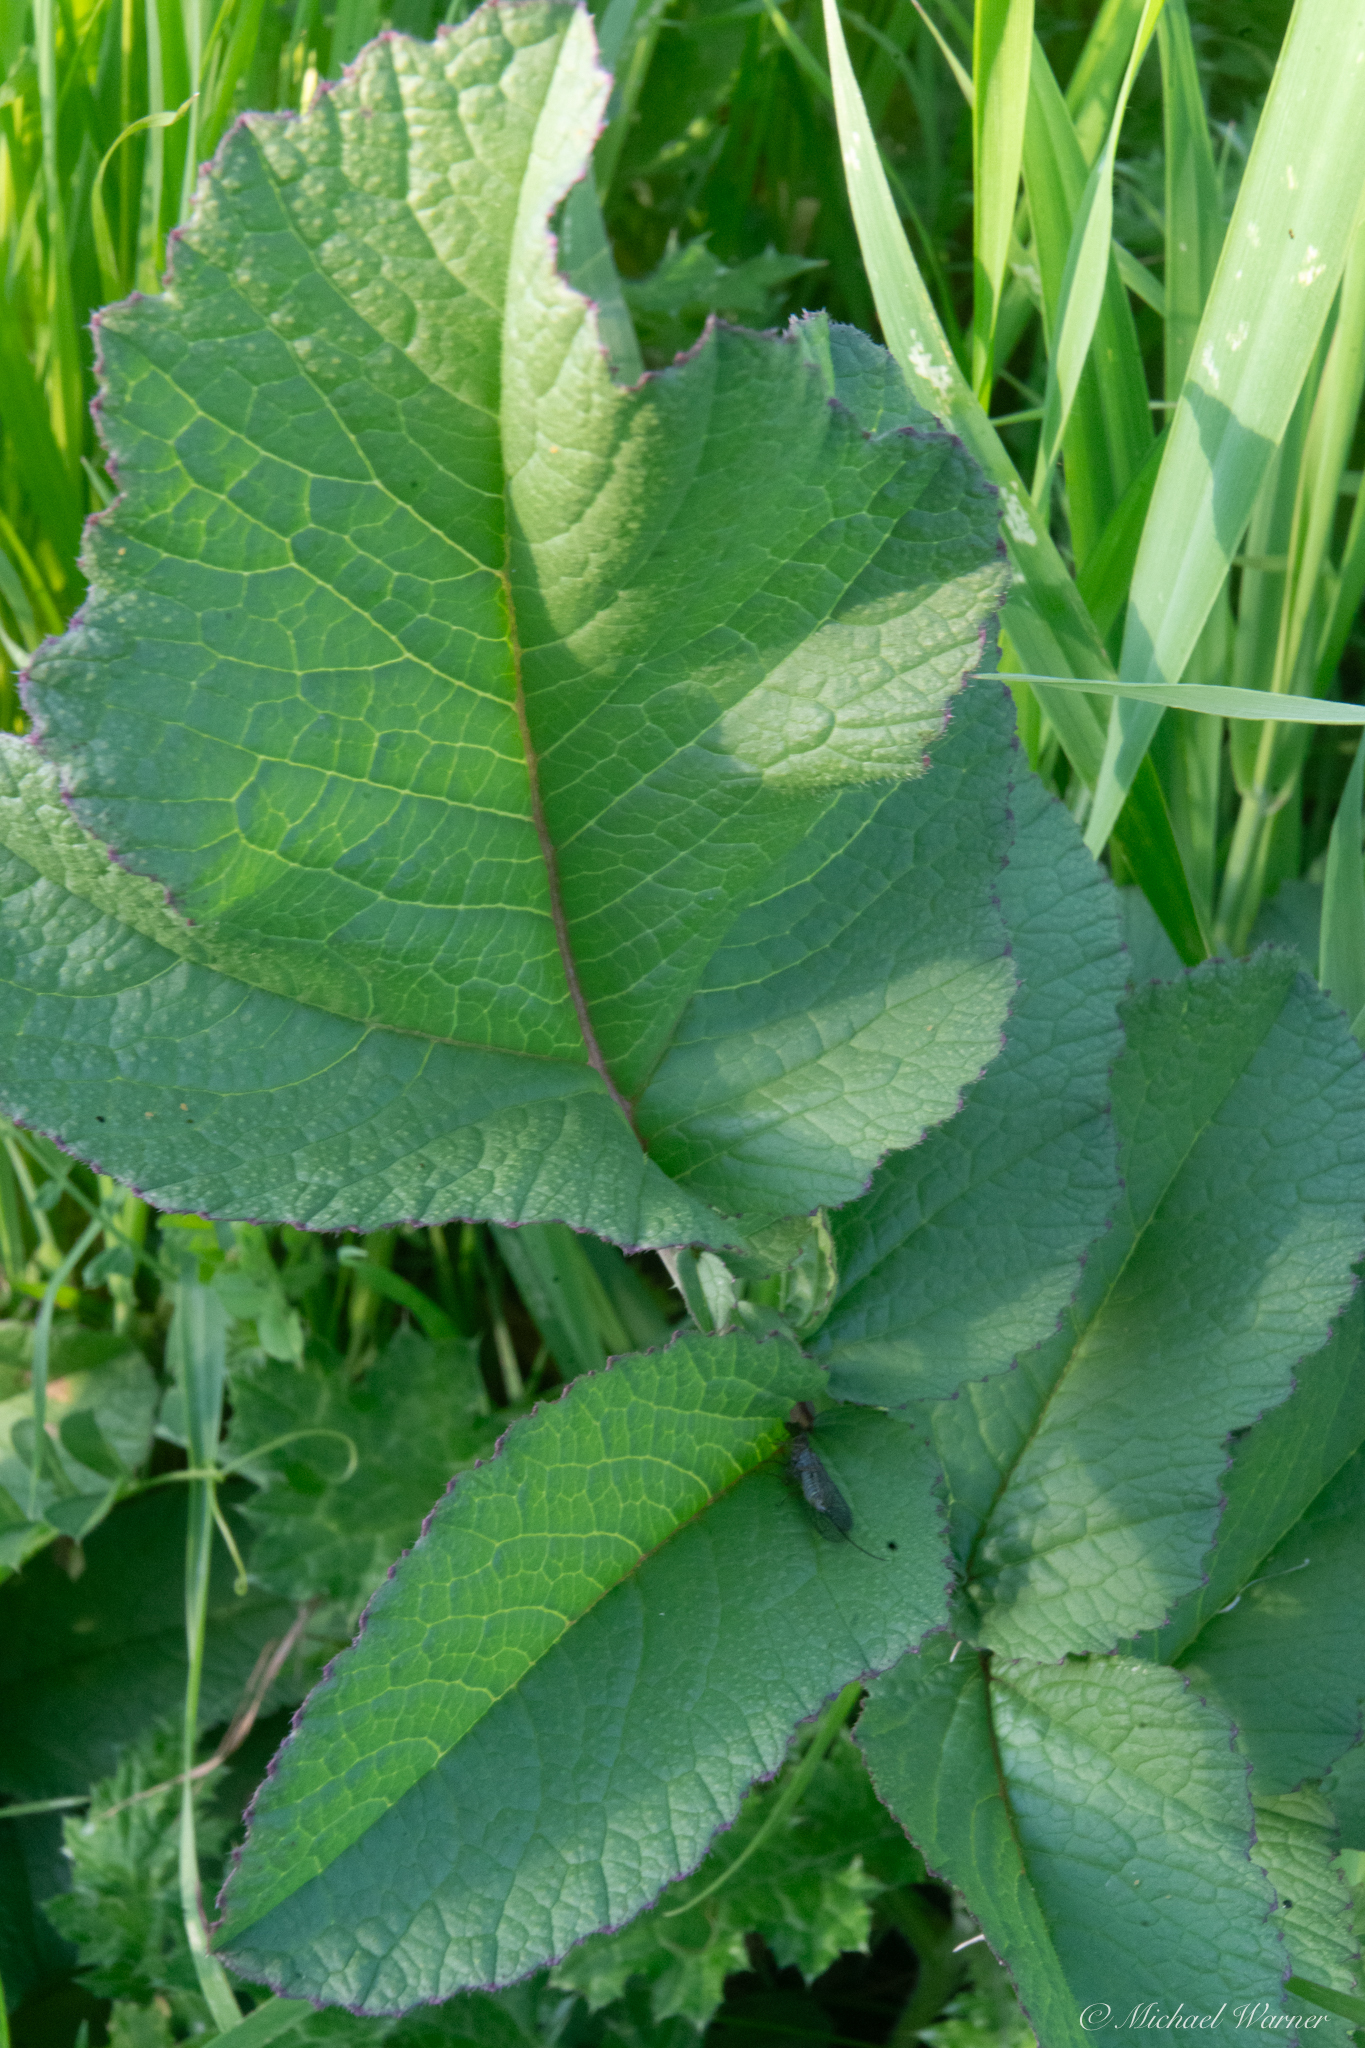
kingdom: Plantae
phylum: Tracheophyta
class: Magnoliopsida
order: Brassicales
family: Brassicaceae
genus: Raphanus
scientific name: Raphanus sativus
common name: Cultivated radish
